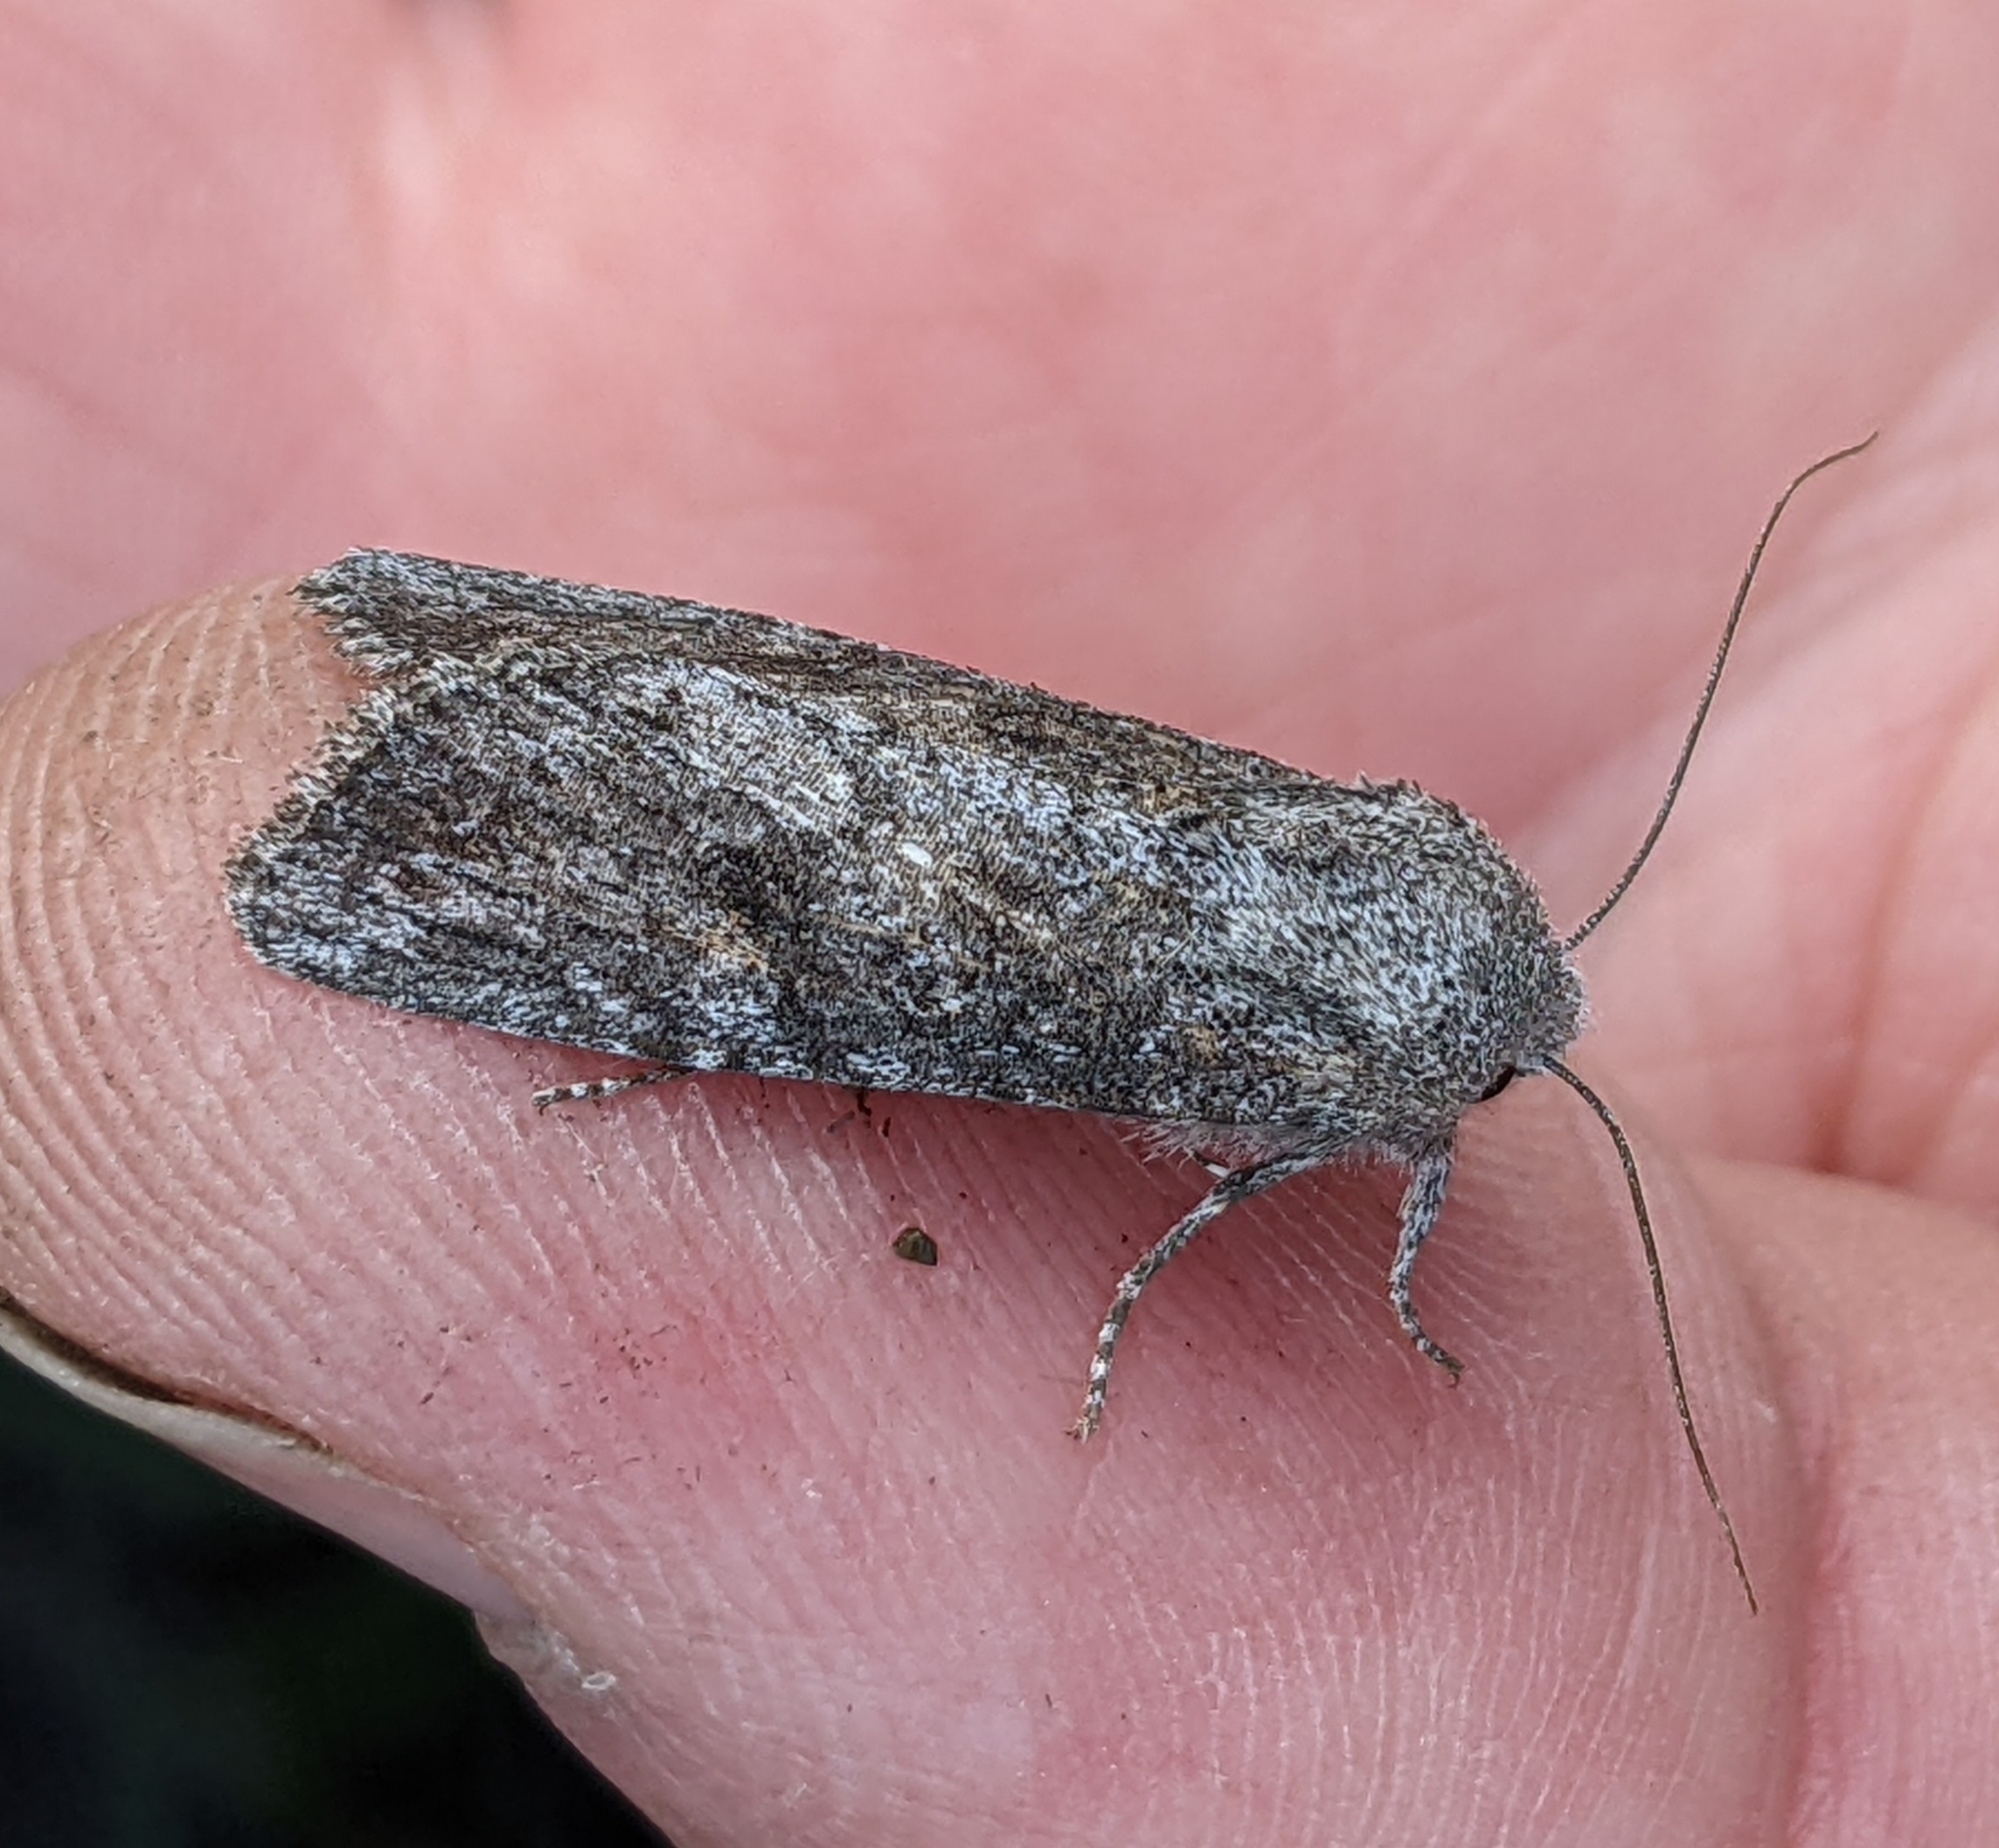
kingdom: Animalia
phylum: Arthropoda
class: Insecta
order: Lepidoptera
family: Noctuidae
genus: Egira
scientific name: Egira curialis
